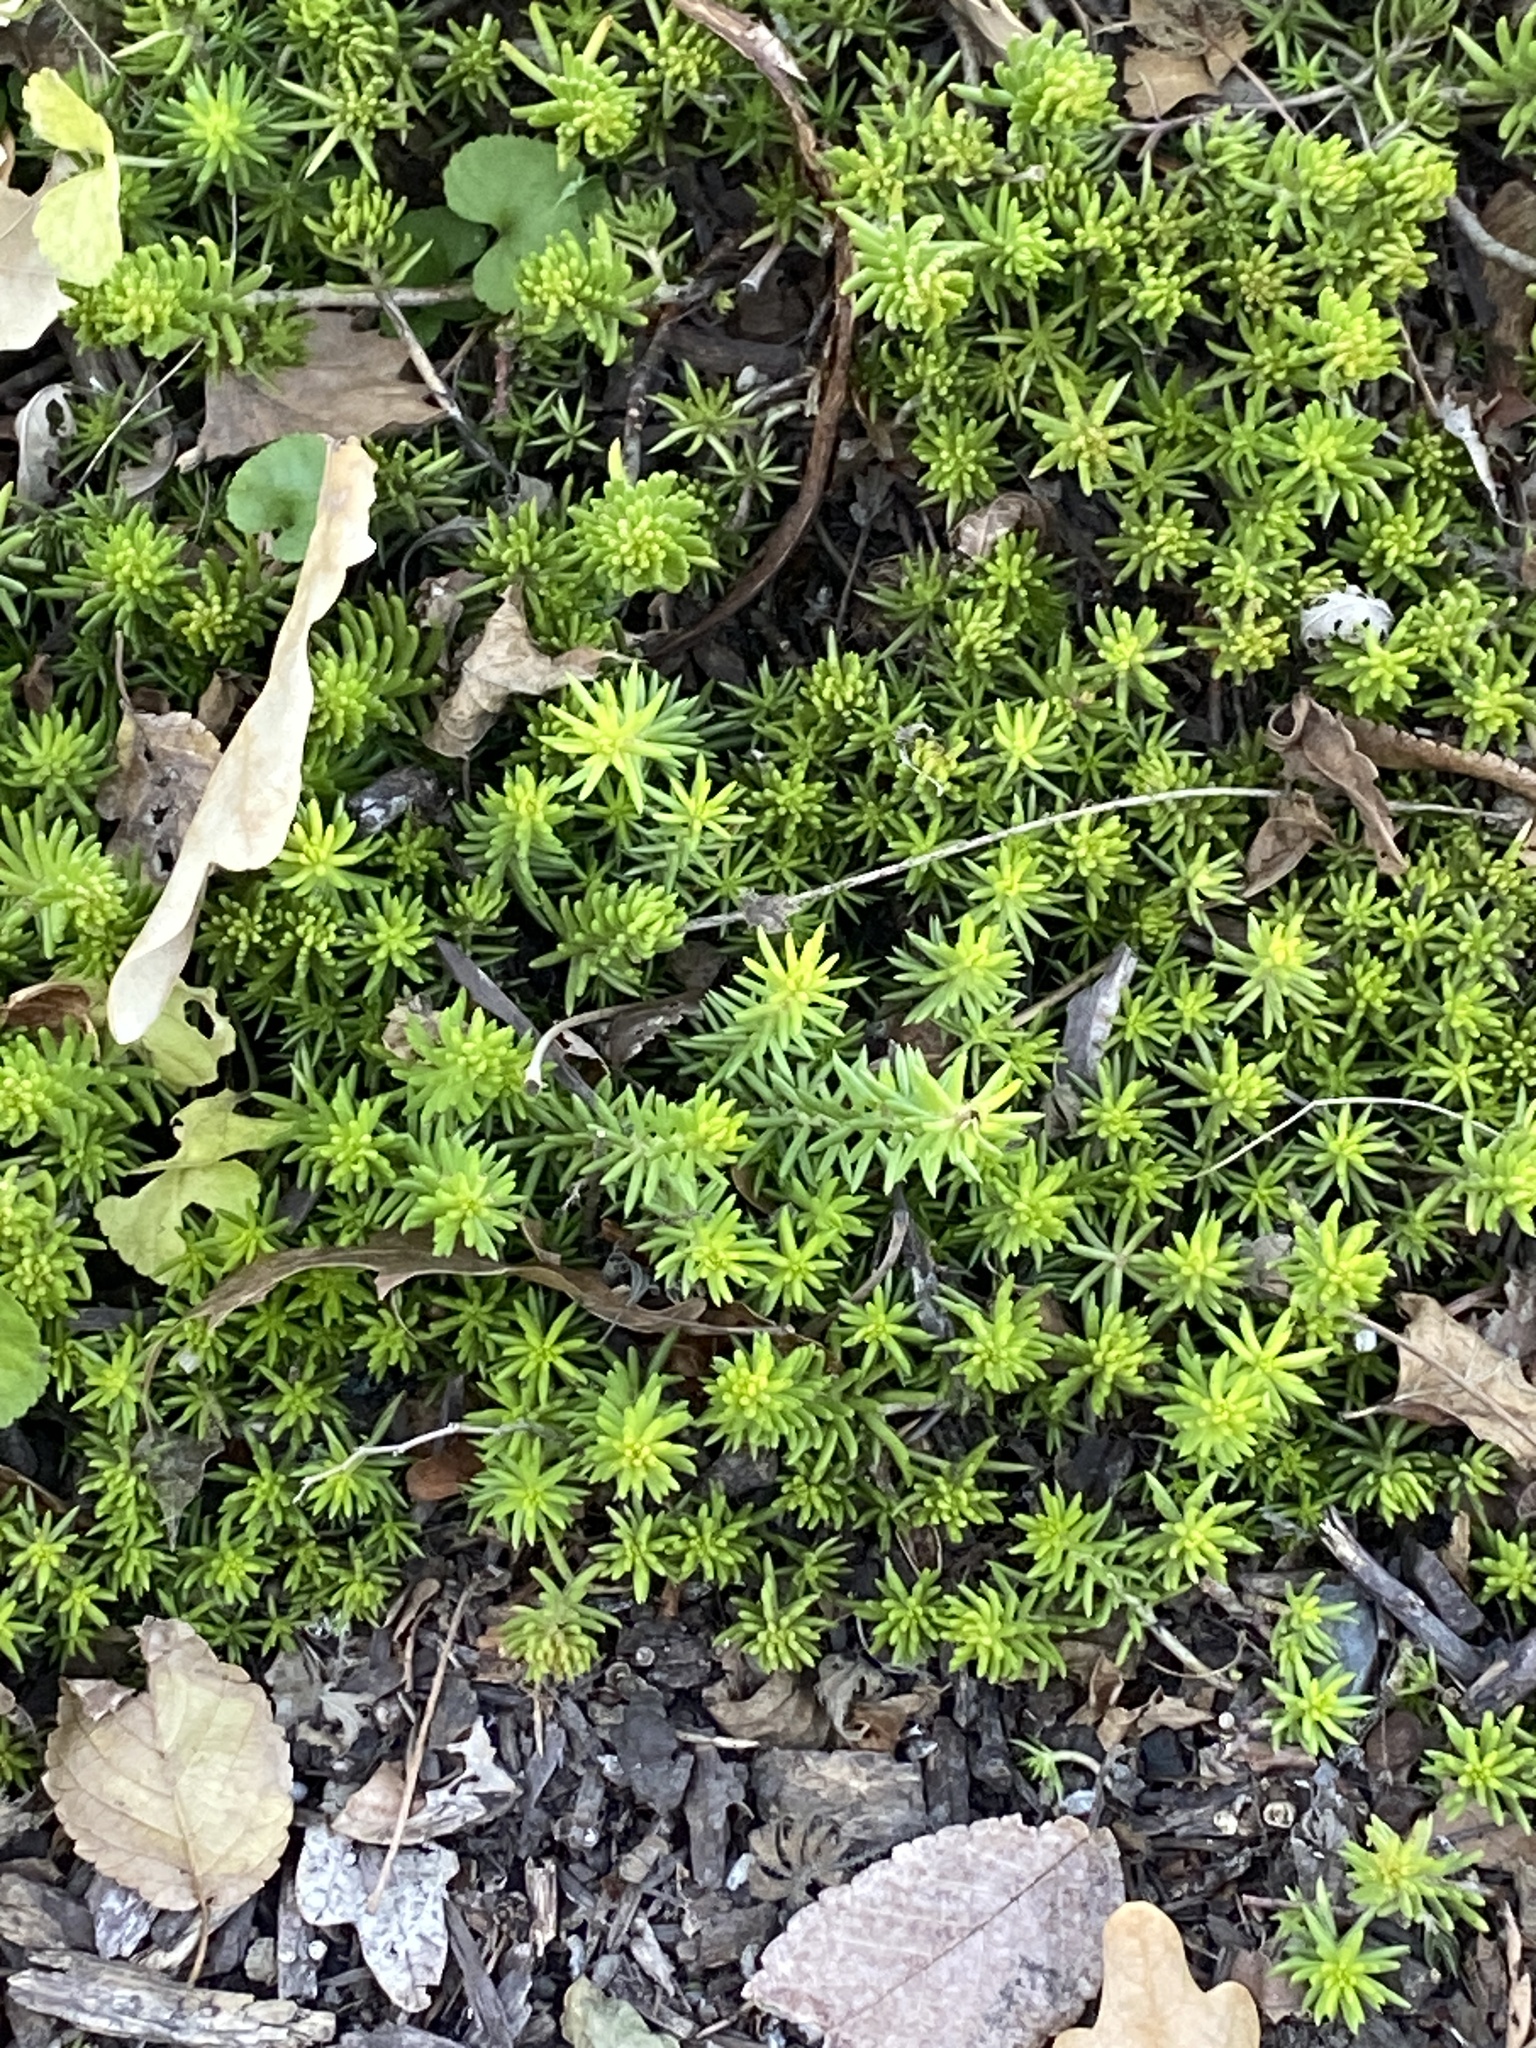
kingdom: Plantae
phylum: Tracheophyta
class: Magnoliopsida
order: Saxifragales
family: Crassulaceae
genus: Petrosedum
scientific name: Petrosedum rupestre
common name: Jenny's stonecrop
